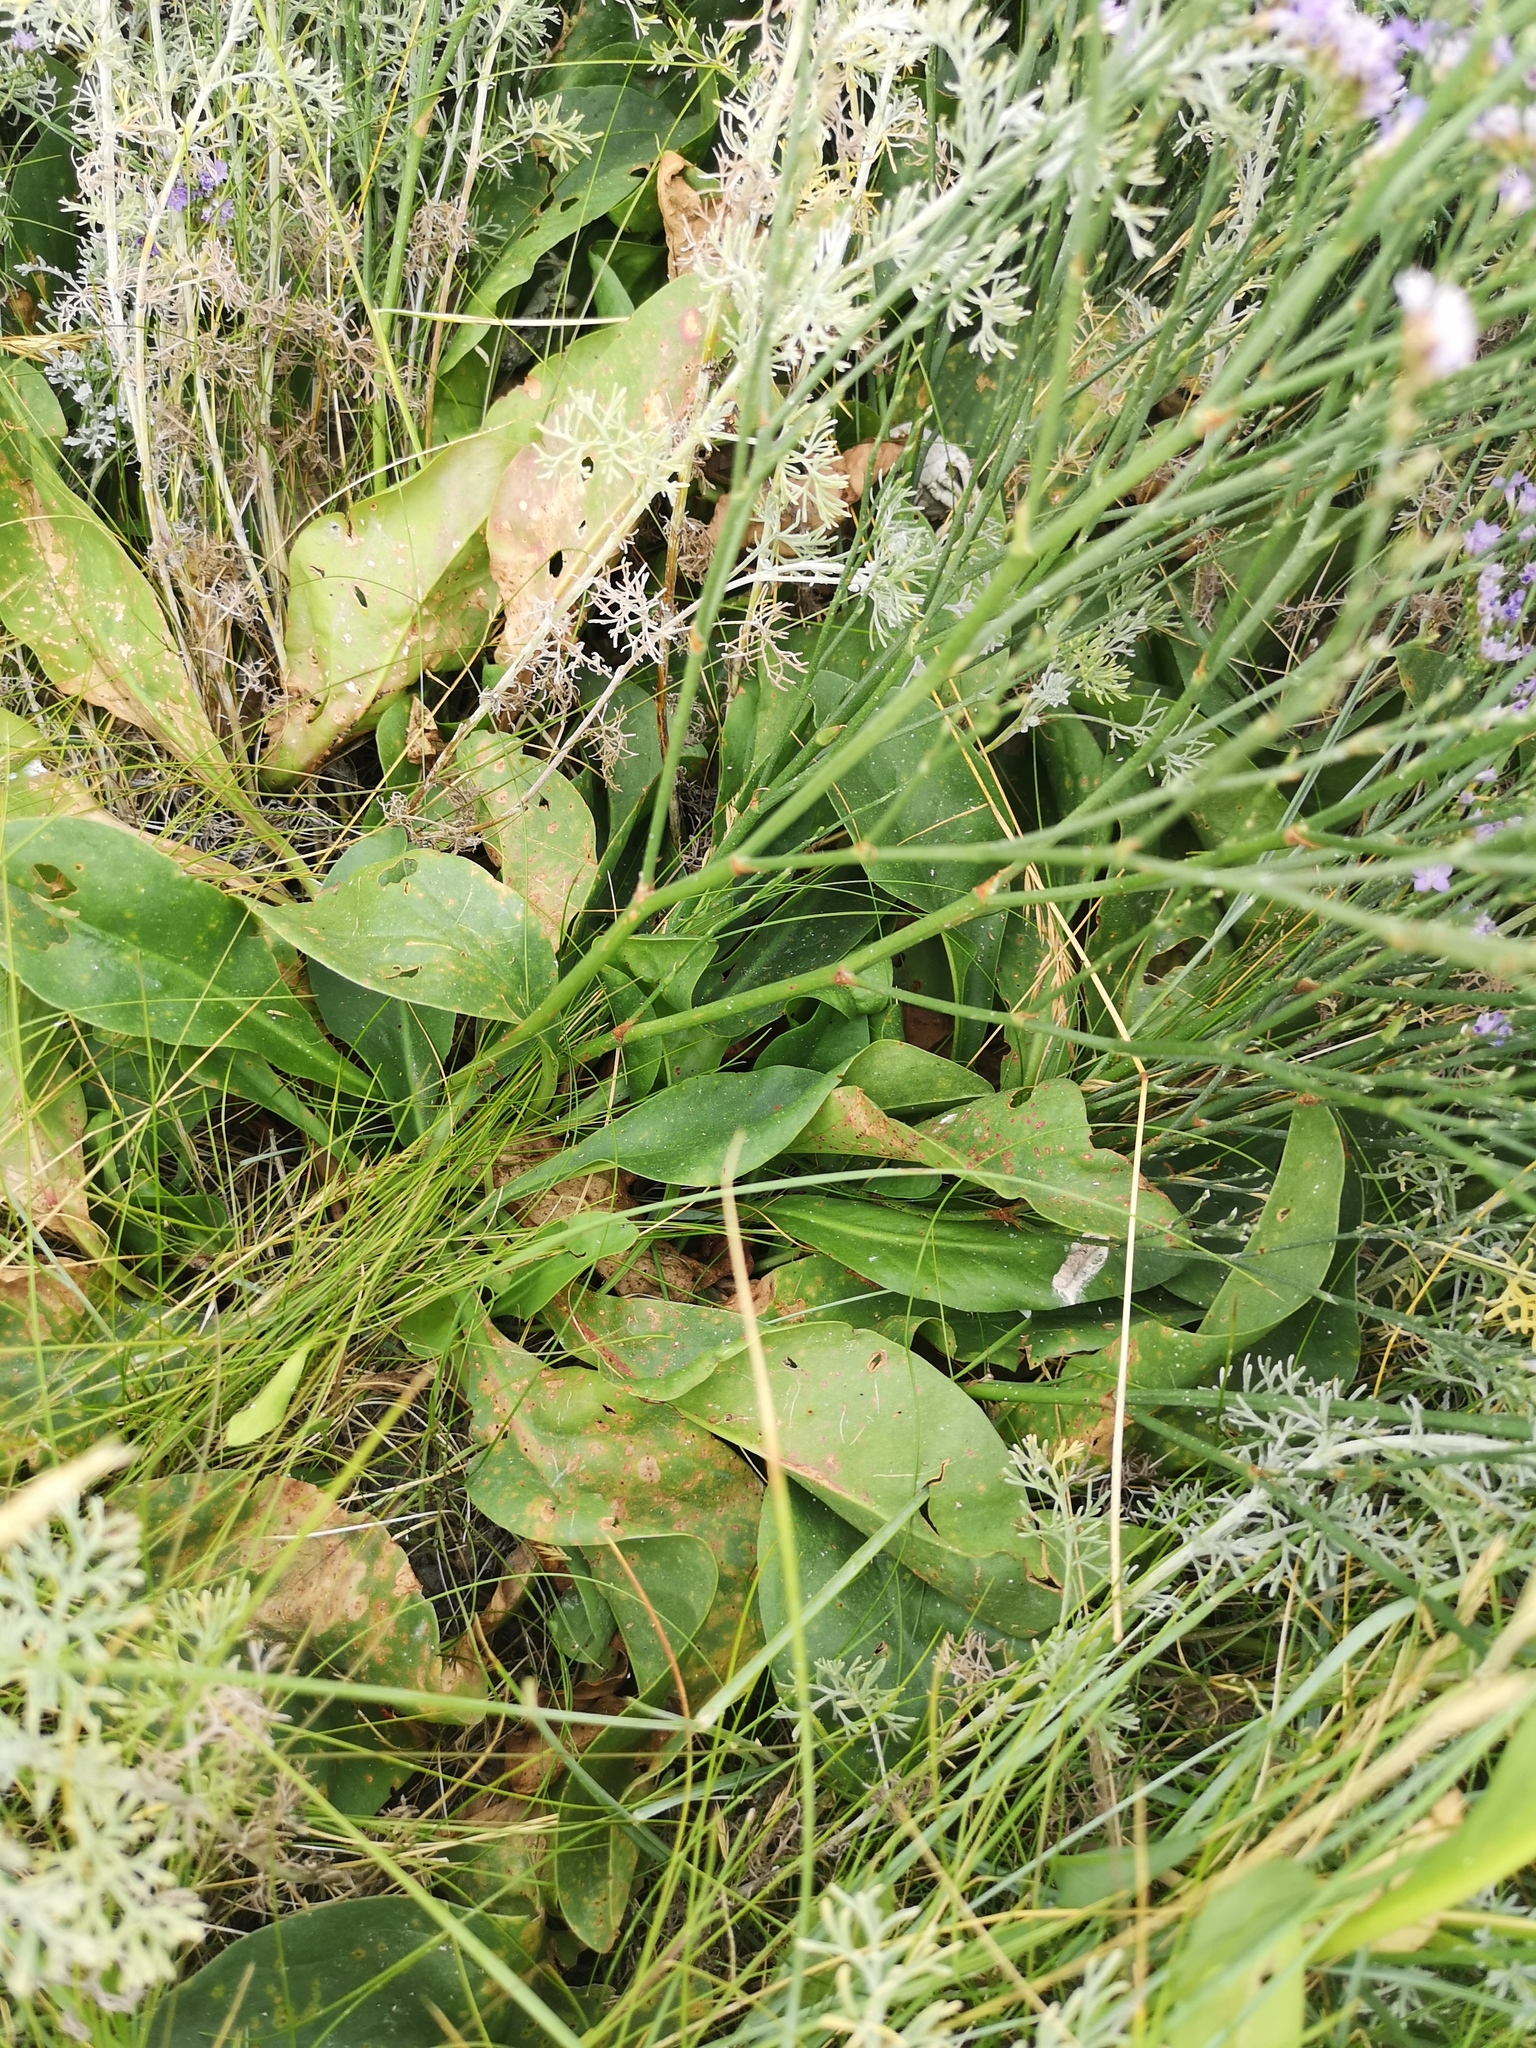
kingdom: Plantae
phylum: Tracheophyta
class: Magnoliopsida
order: Caryophyllales
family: Plumbaginaceae
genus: Limonium
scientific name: Limonium vulgare
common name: Common sea-lavender
